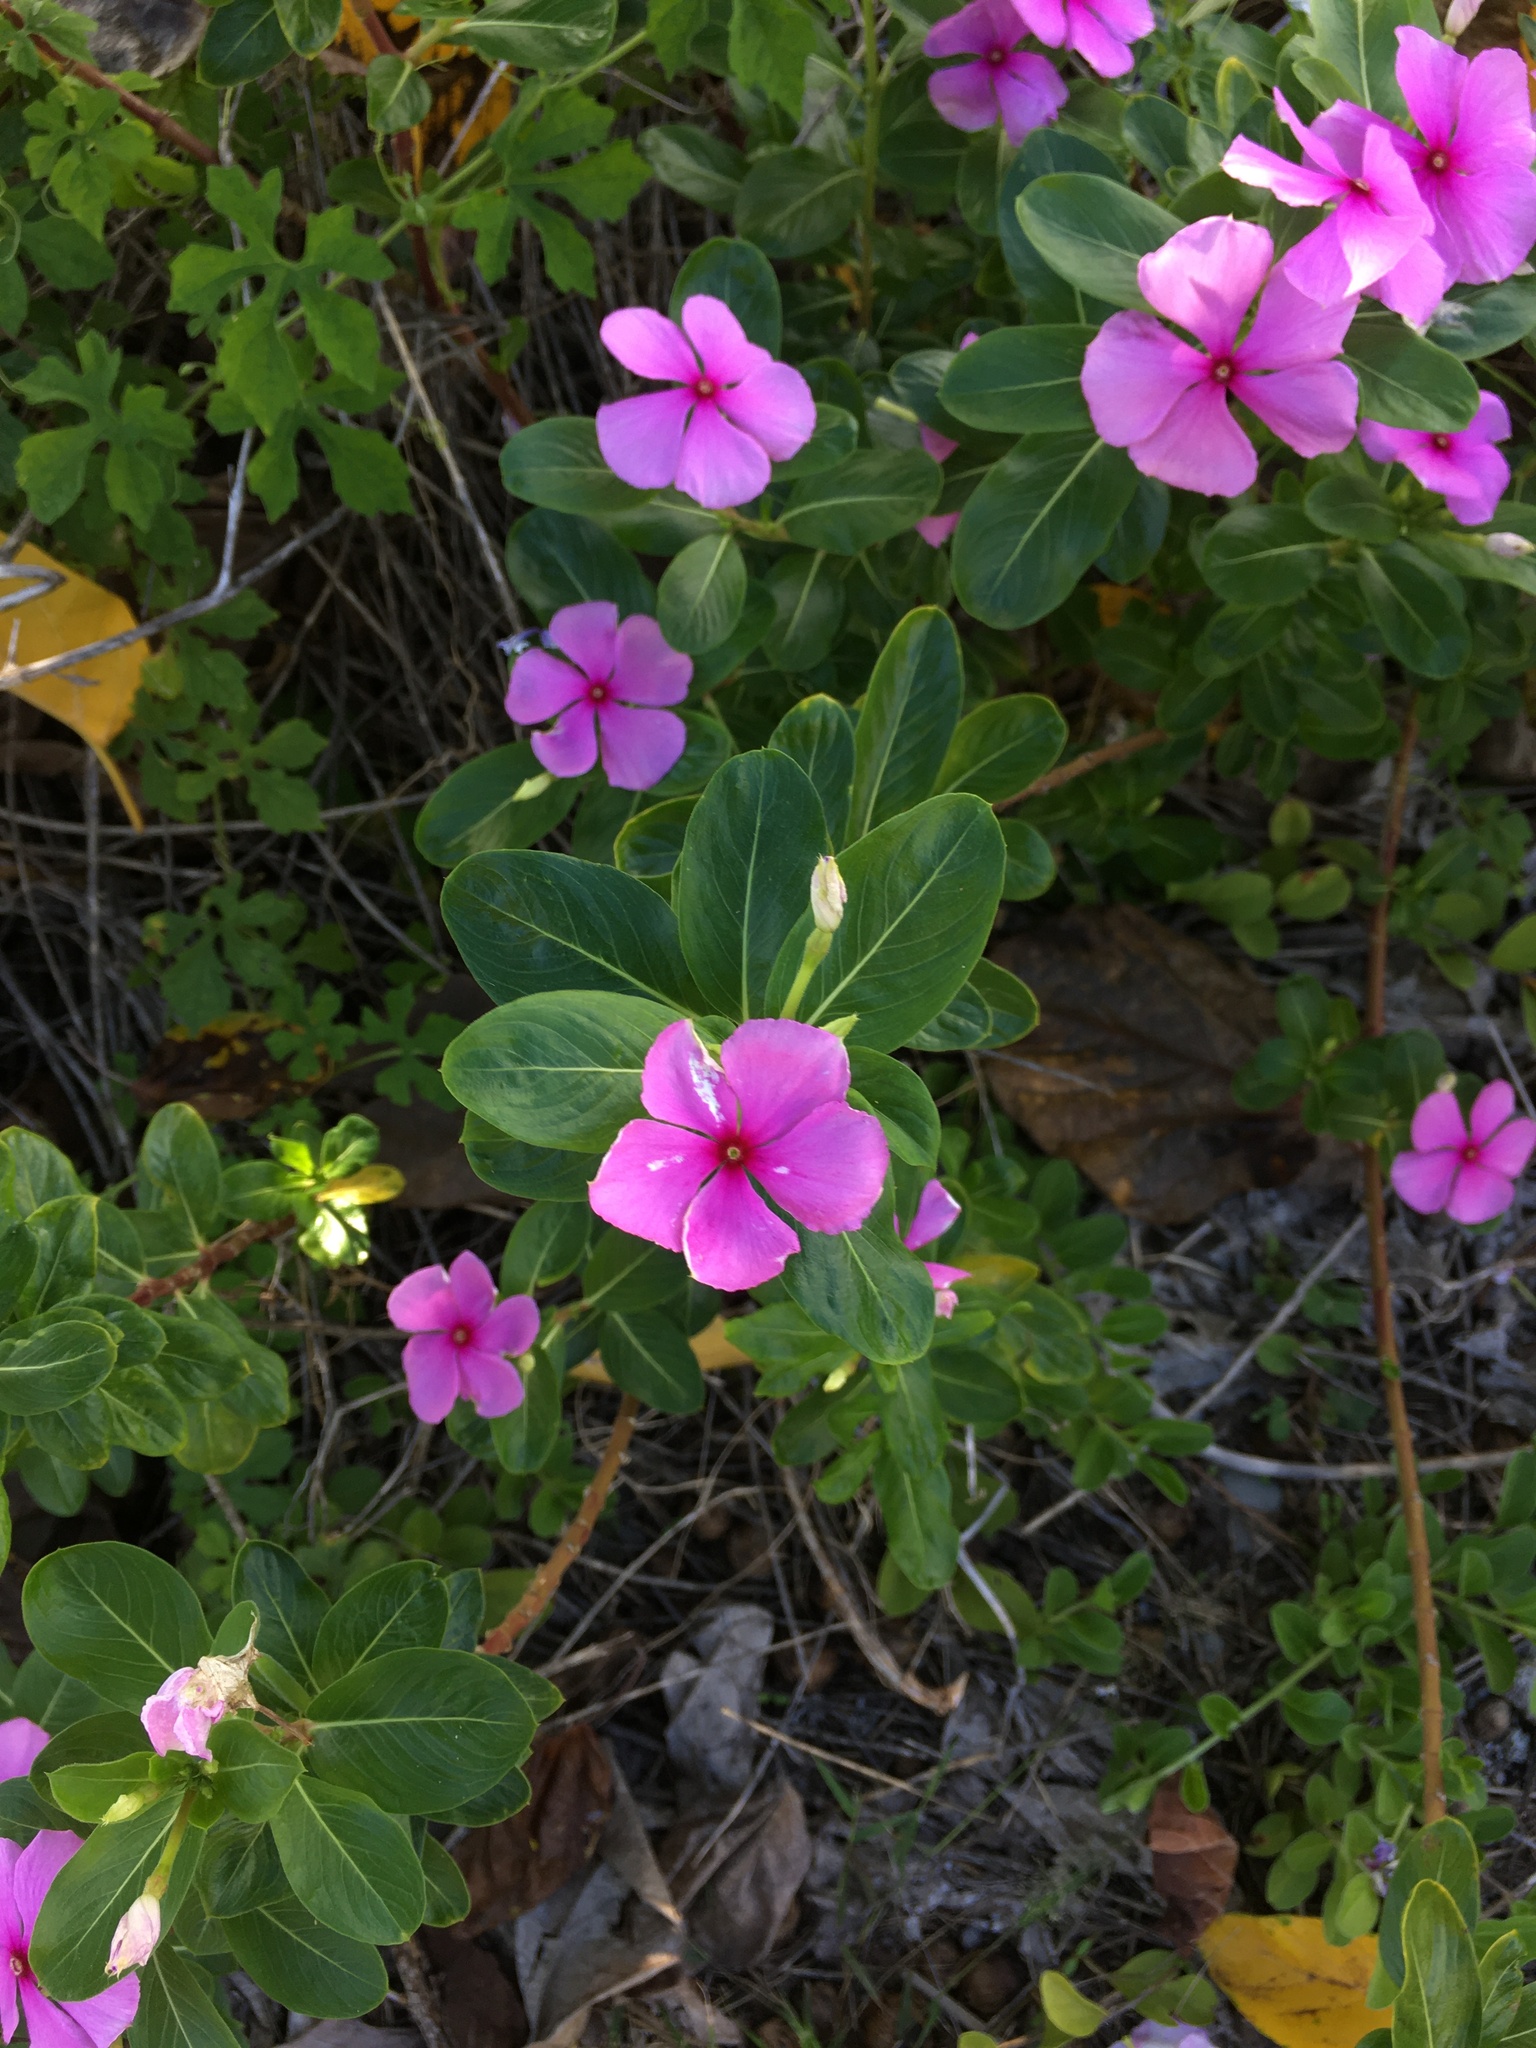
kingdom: Plantae
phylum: Tracheophyta
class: Magnoliopsida
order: Gentianales
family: Apocynaceae
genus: Catharanthus
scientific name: Catharanthus roseus
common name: Madagascar periwinkle
